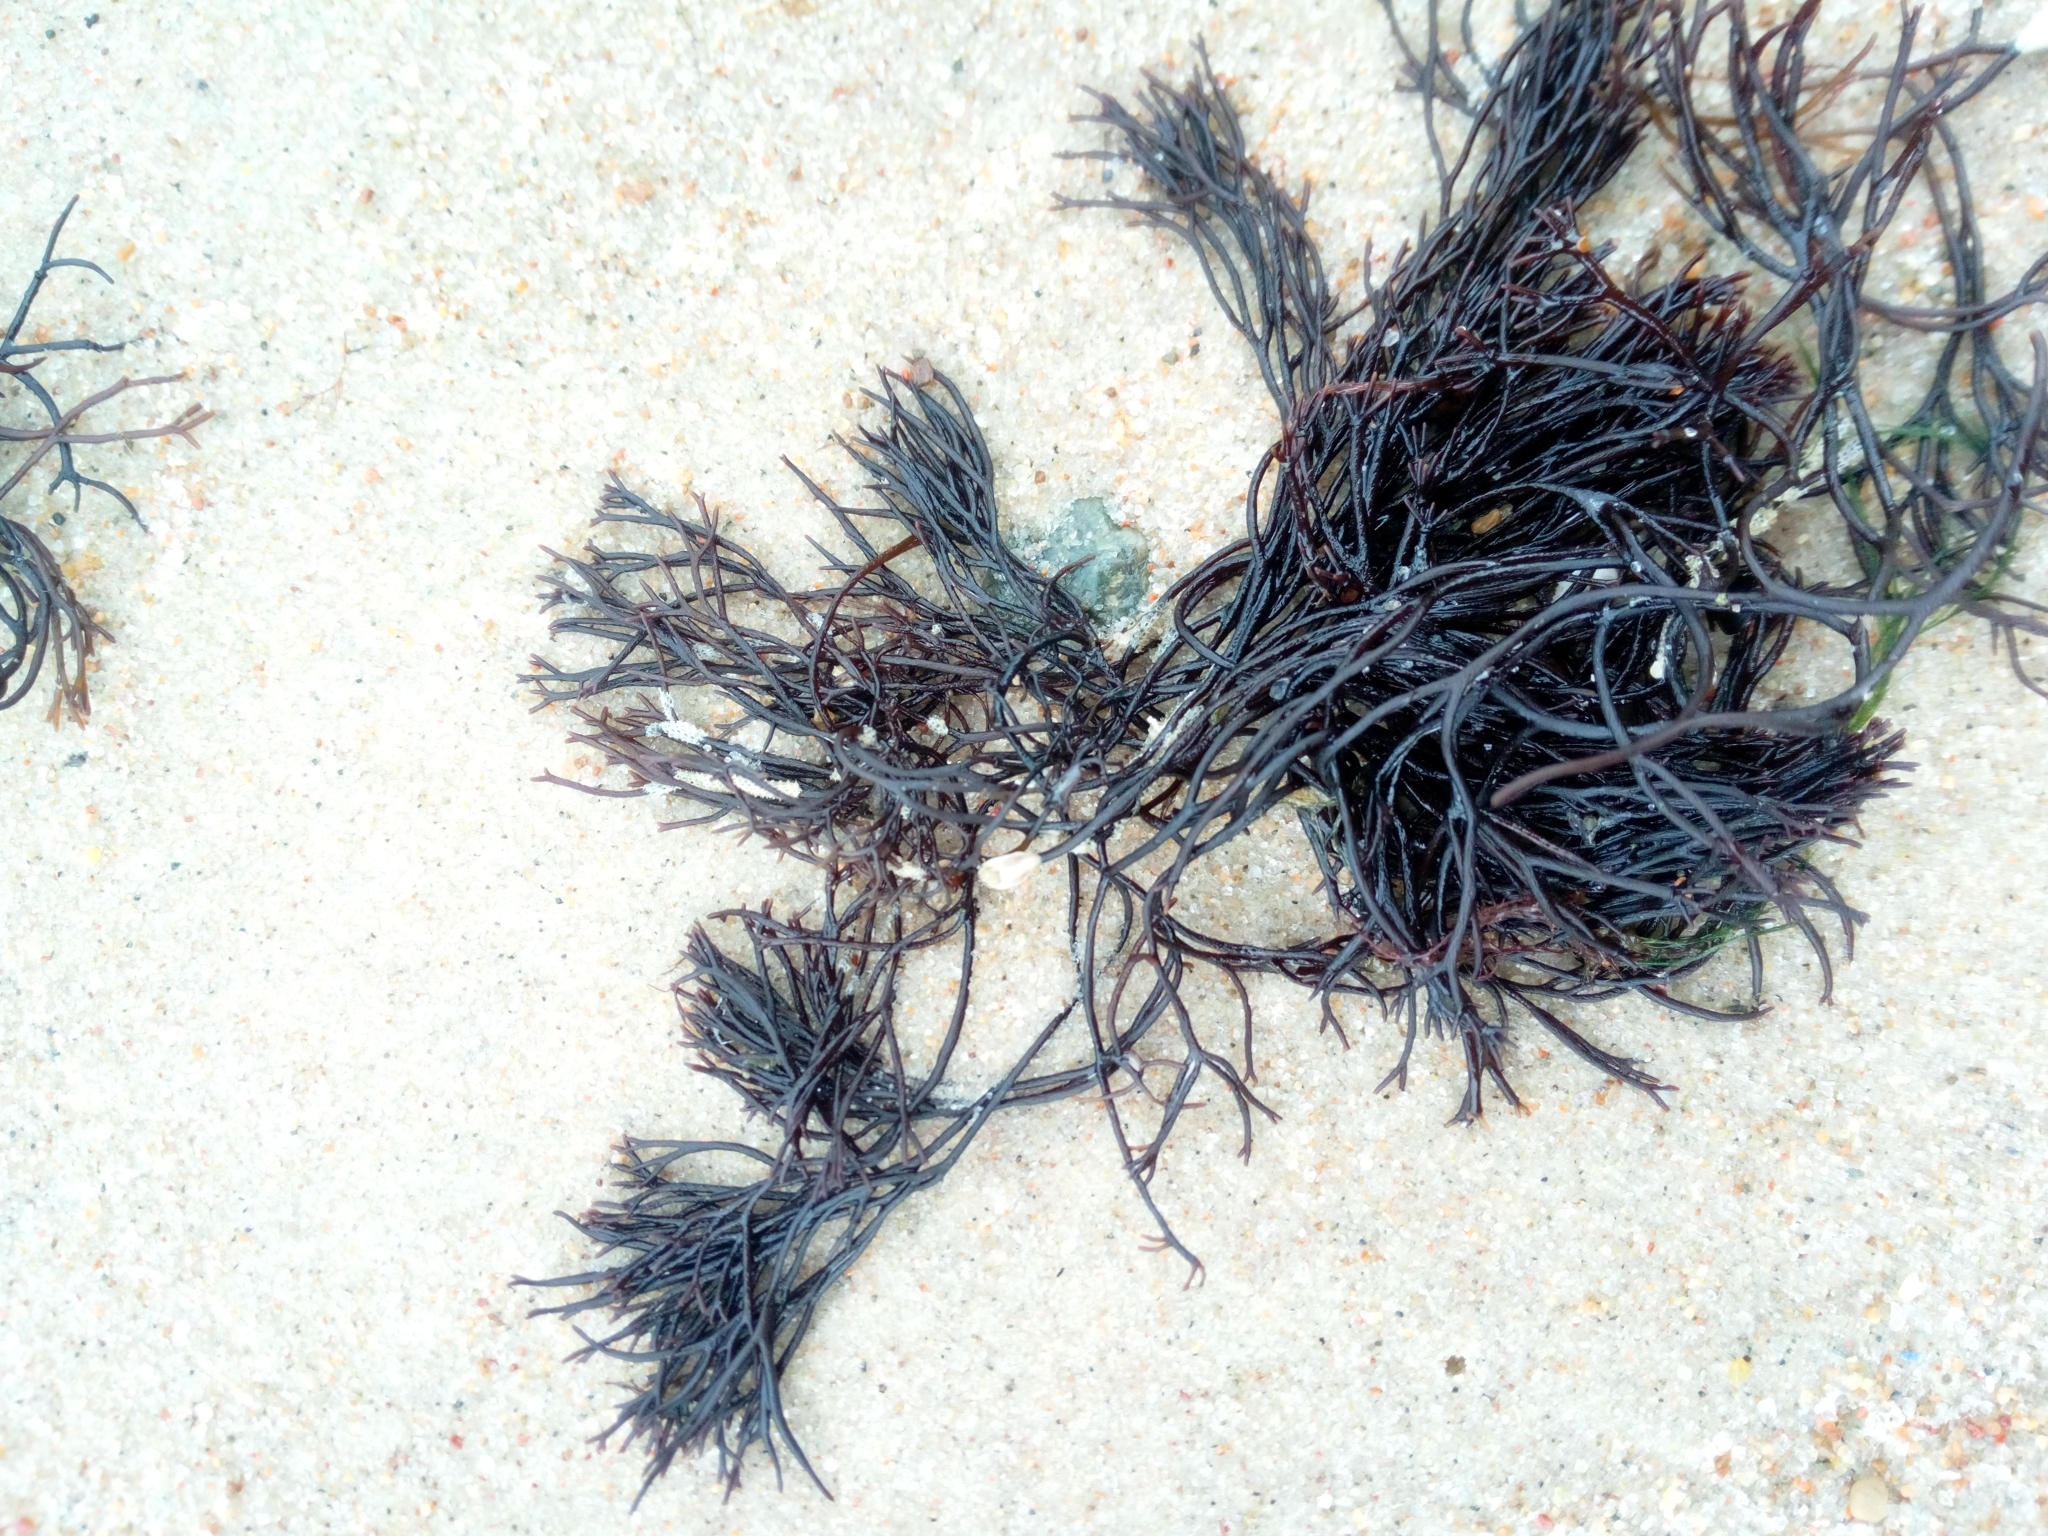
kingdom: Plantae
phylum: Rhodophyta
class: Florideophyceae
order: Gigartinales
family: Furcellariaceae
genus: Furcellaria
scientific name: Furcellaria lumbricalis
